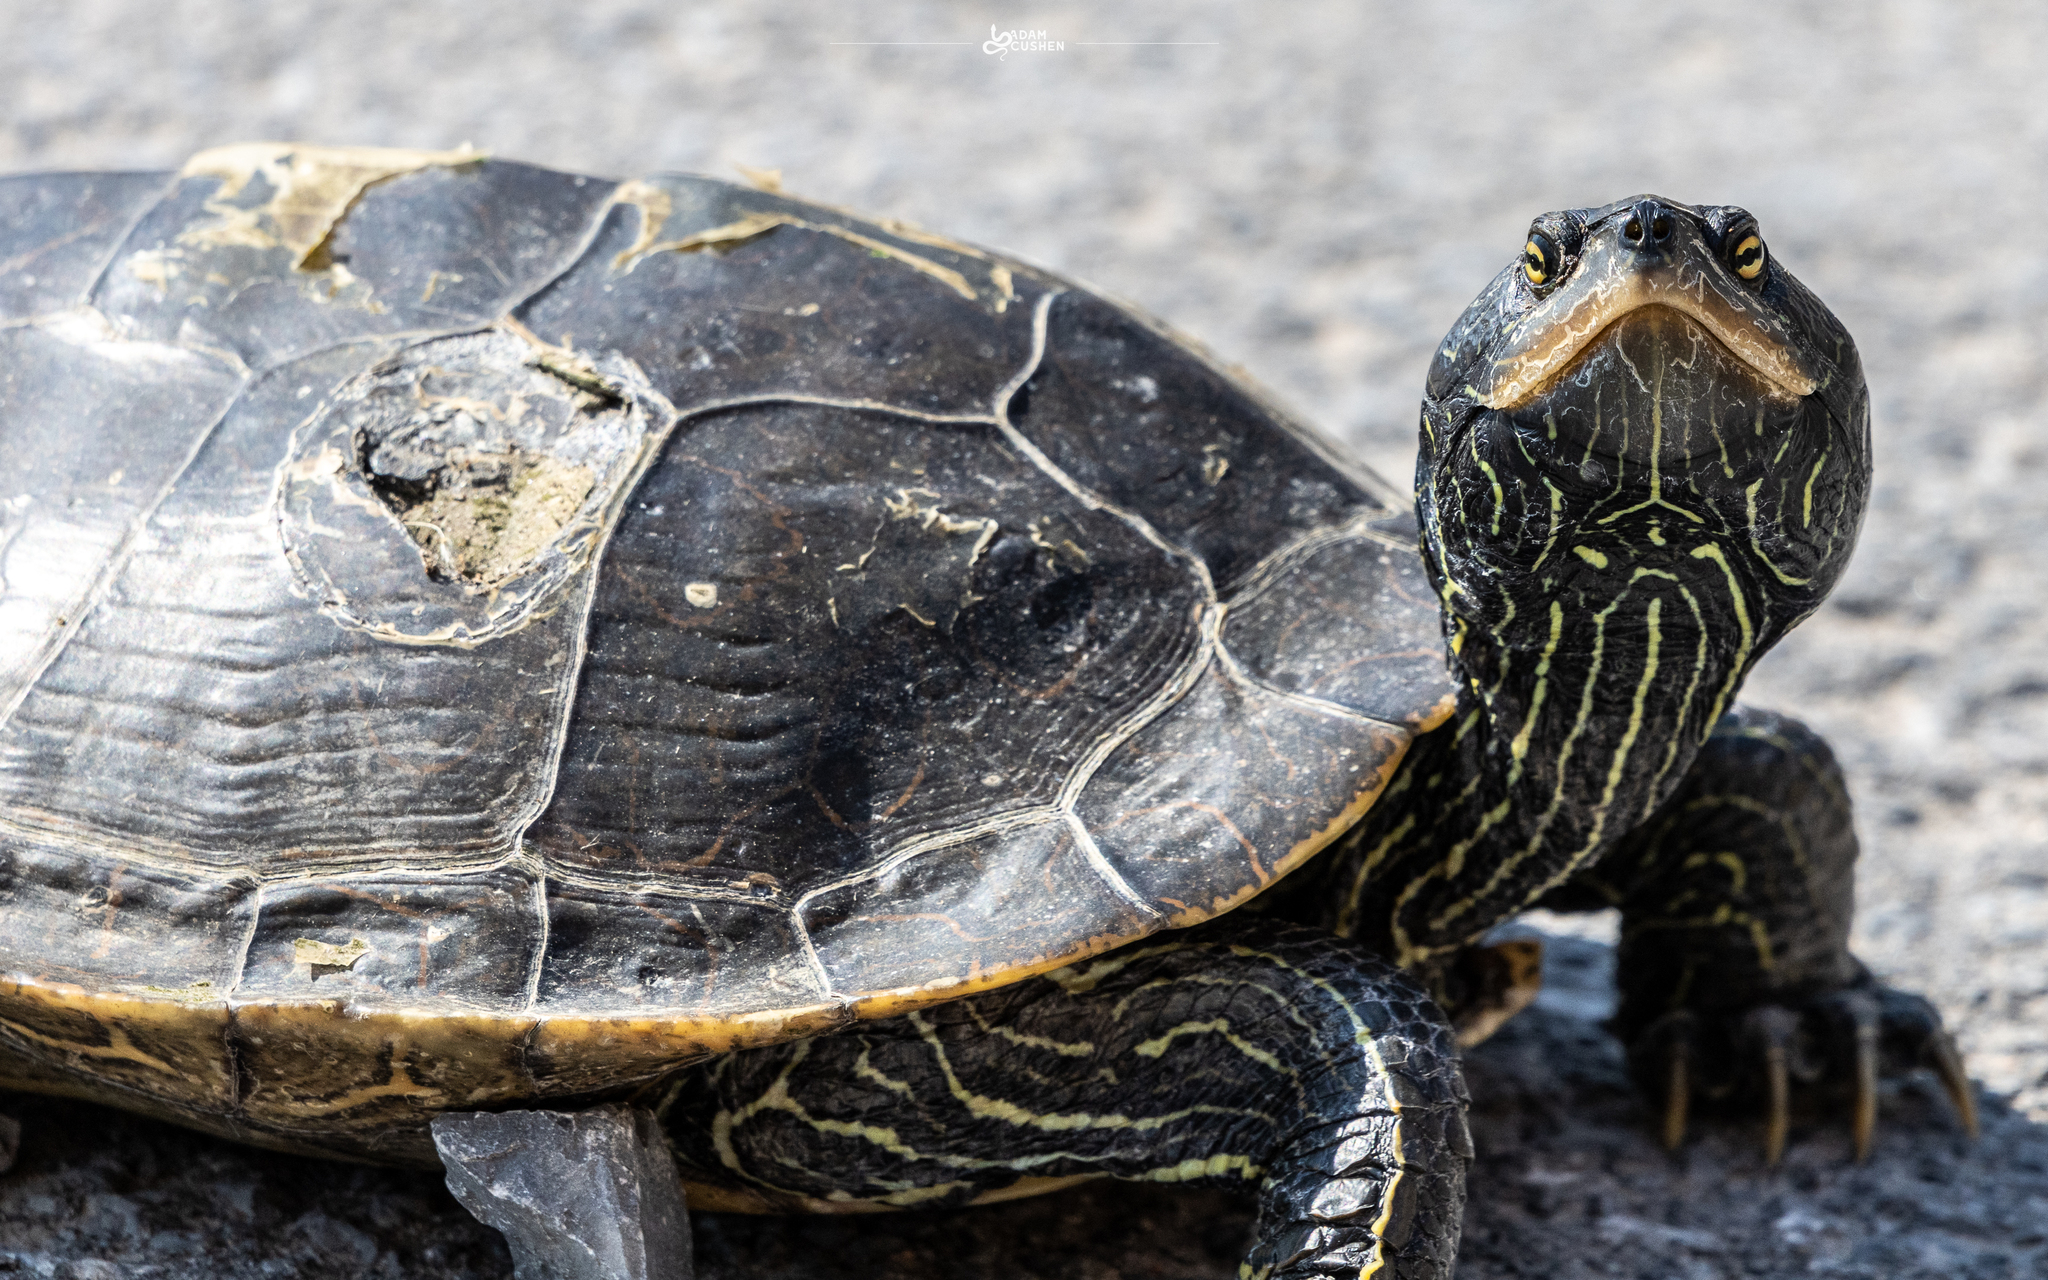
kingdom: Animalia
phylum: Chordata
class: Testudines
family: Emydidae
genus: Graptemys
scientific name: Graptemys geographica
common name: Common map turtle
